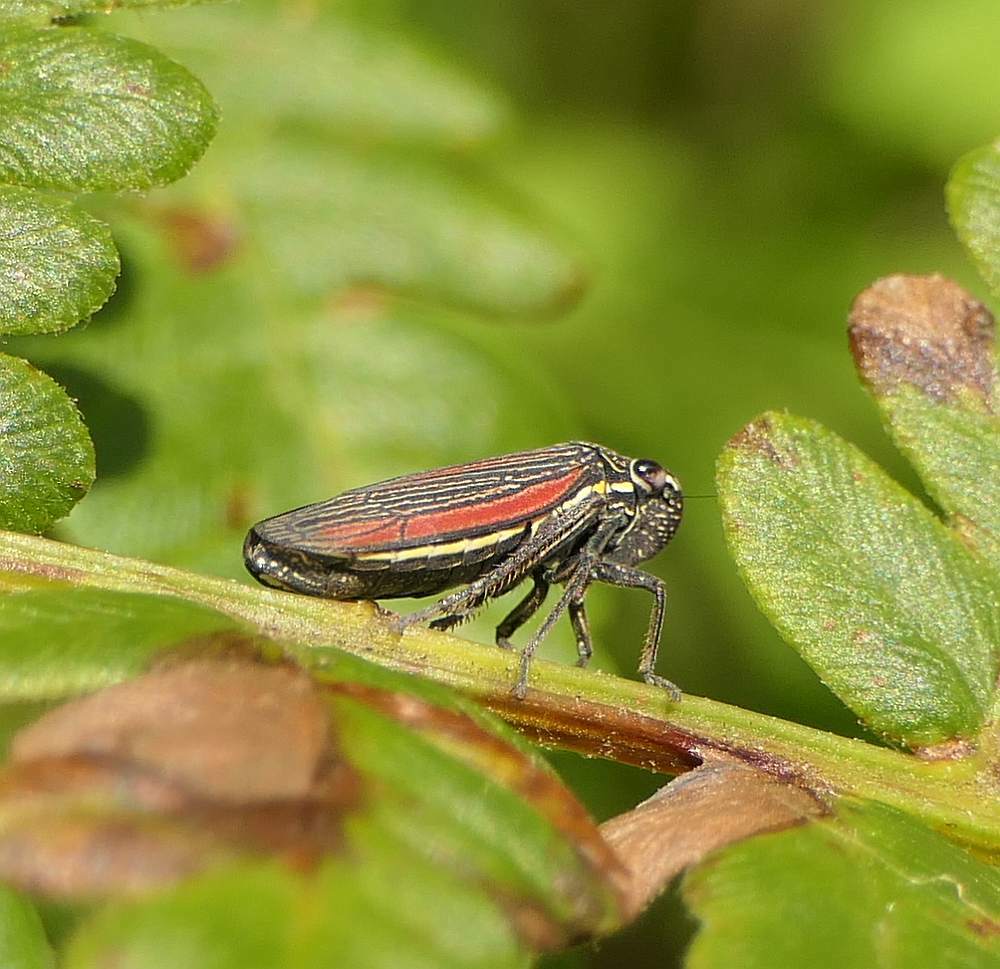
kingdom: Animalia
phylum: Arthropoda
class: Insecta
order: Hemiptera
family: Cicadellidae
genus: Cuerna
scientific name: Cuerna striata
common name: Striped leafhopper
